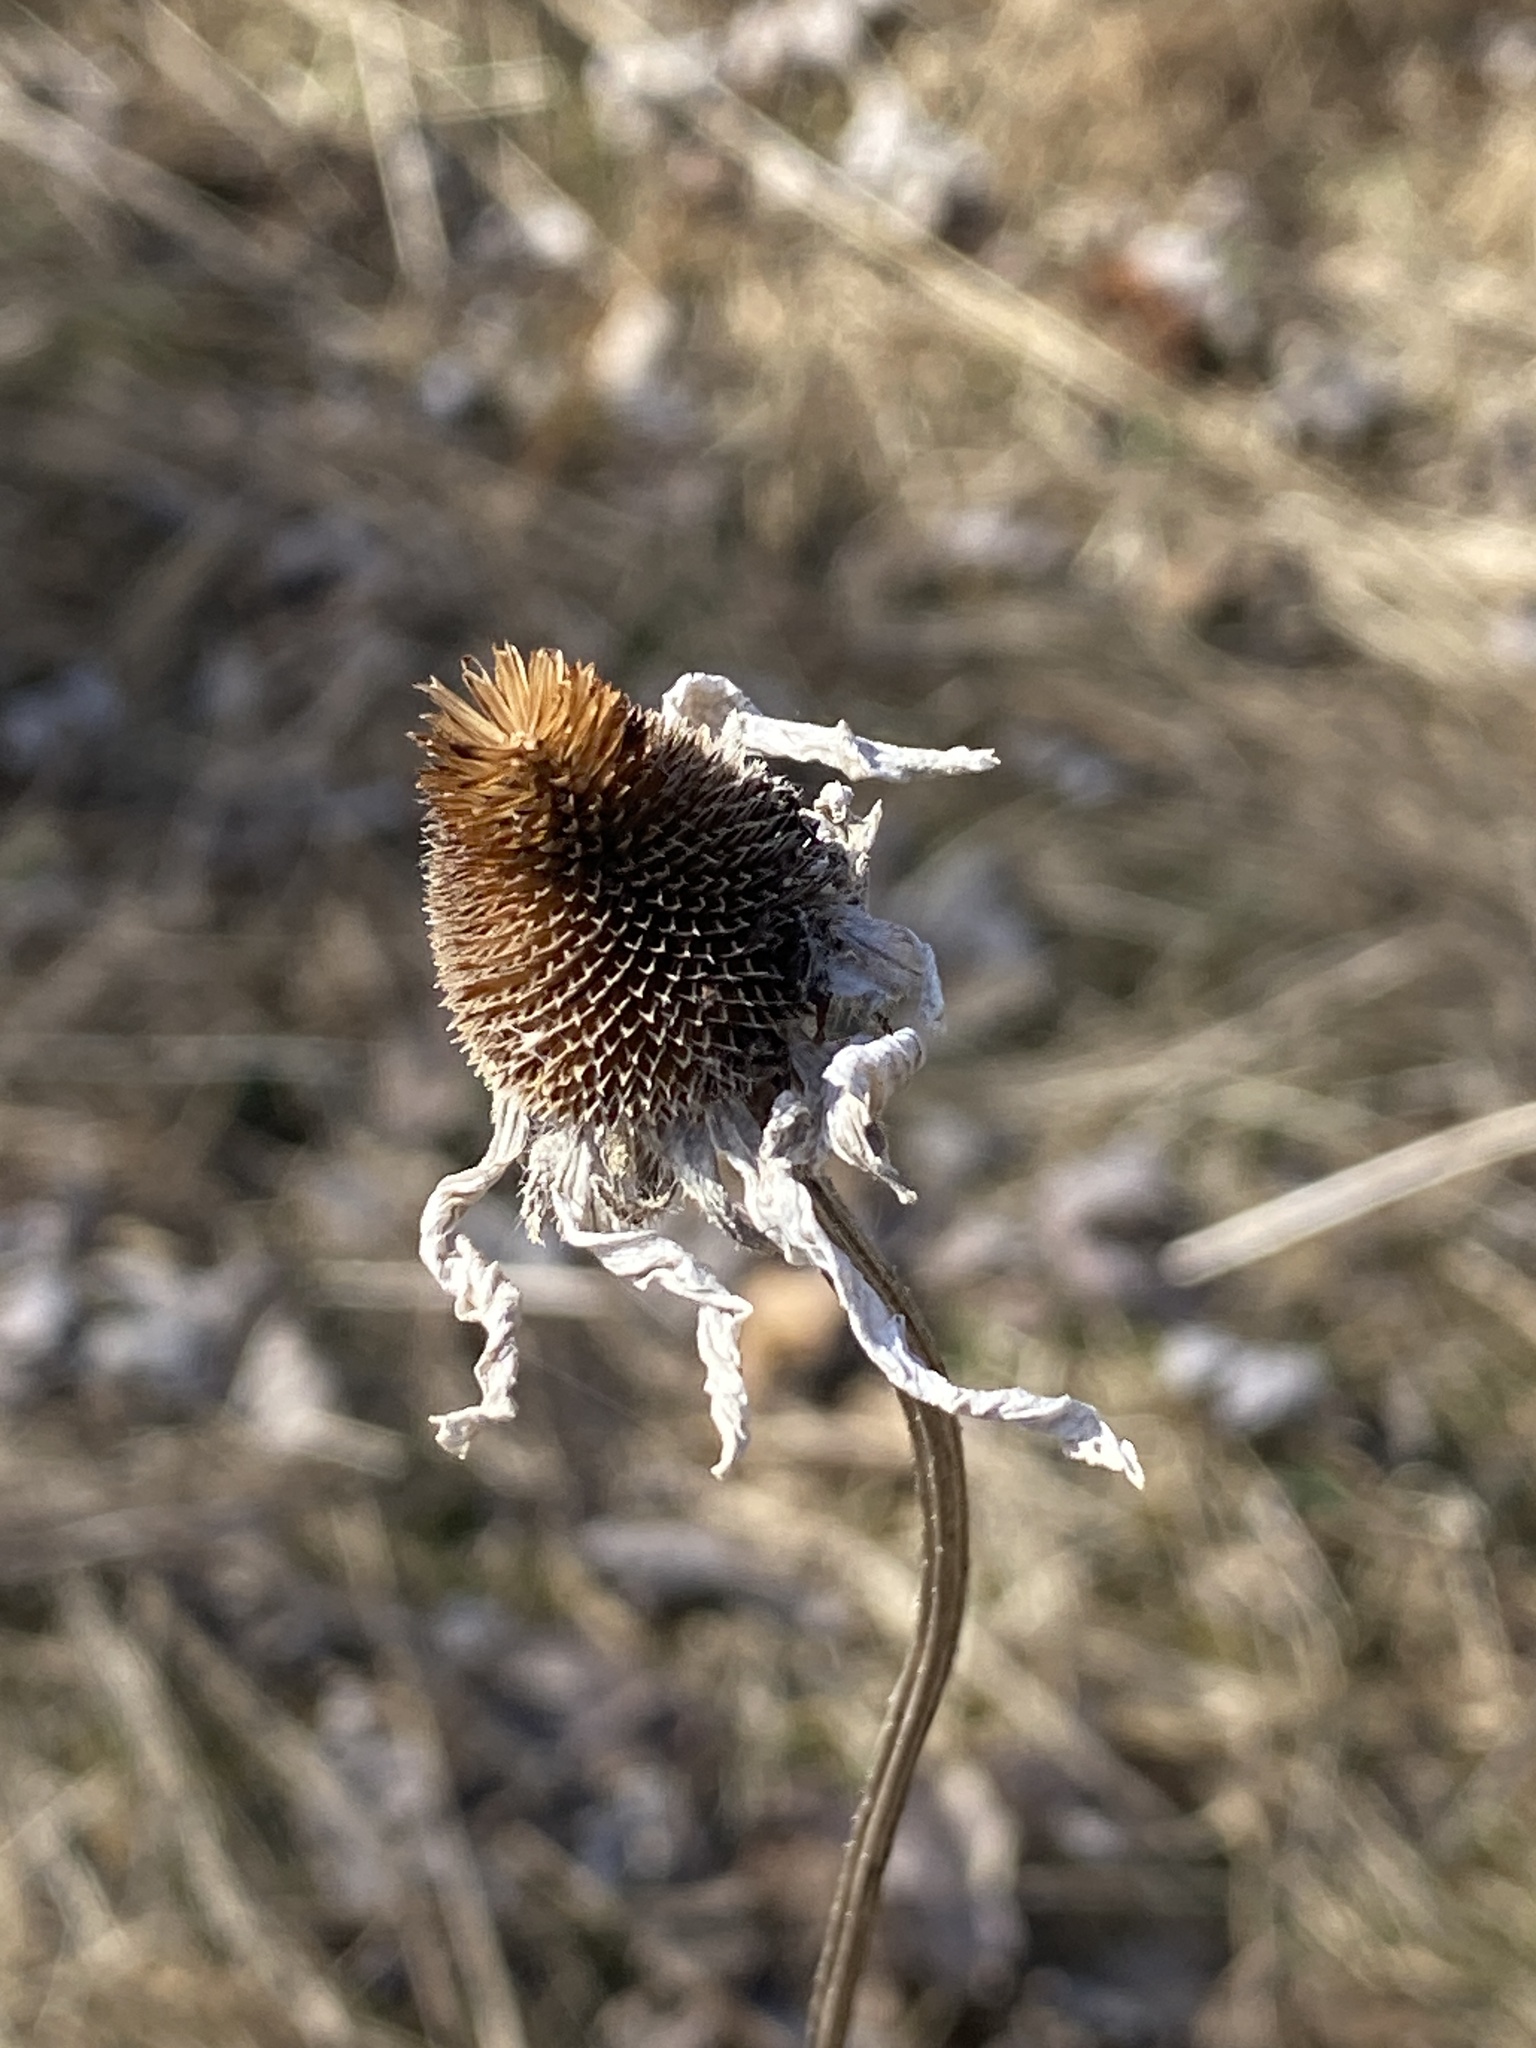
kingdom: Plantae
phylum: Tracheophyta
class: Magnoliopsida
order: Asterales
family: Asteraceae
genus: Rudbeckia
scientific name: Rudbeckia hirta
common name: Black-eyed-susan
